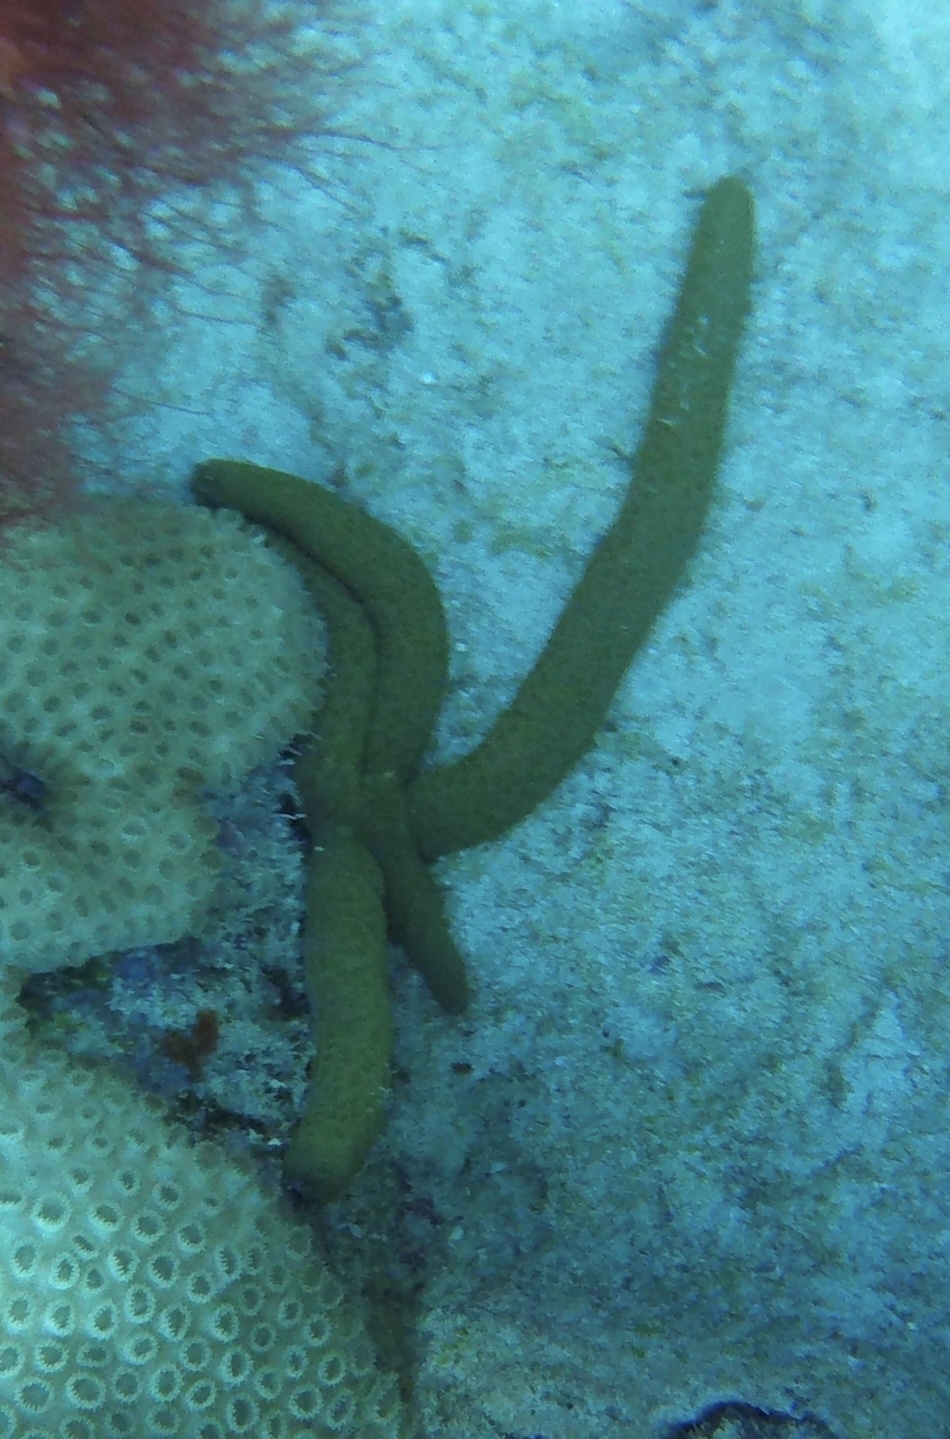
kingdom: Animalia
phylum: Echinodermata
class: Asteroidea
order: Valvatida
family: Ophidiasteridae
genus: Linckia
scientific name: Linckia guildingi
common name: Common comet star
